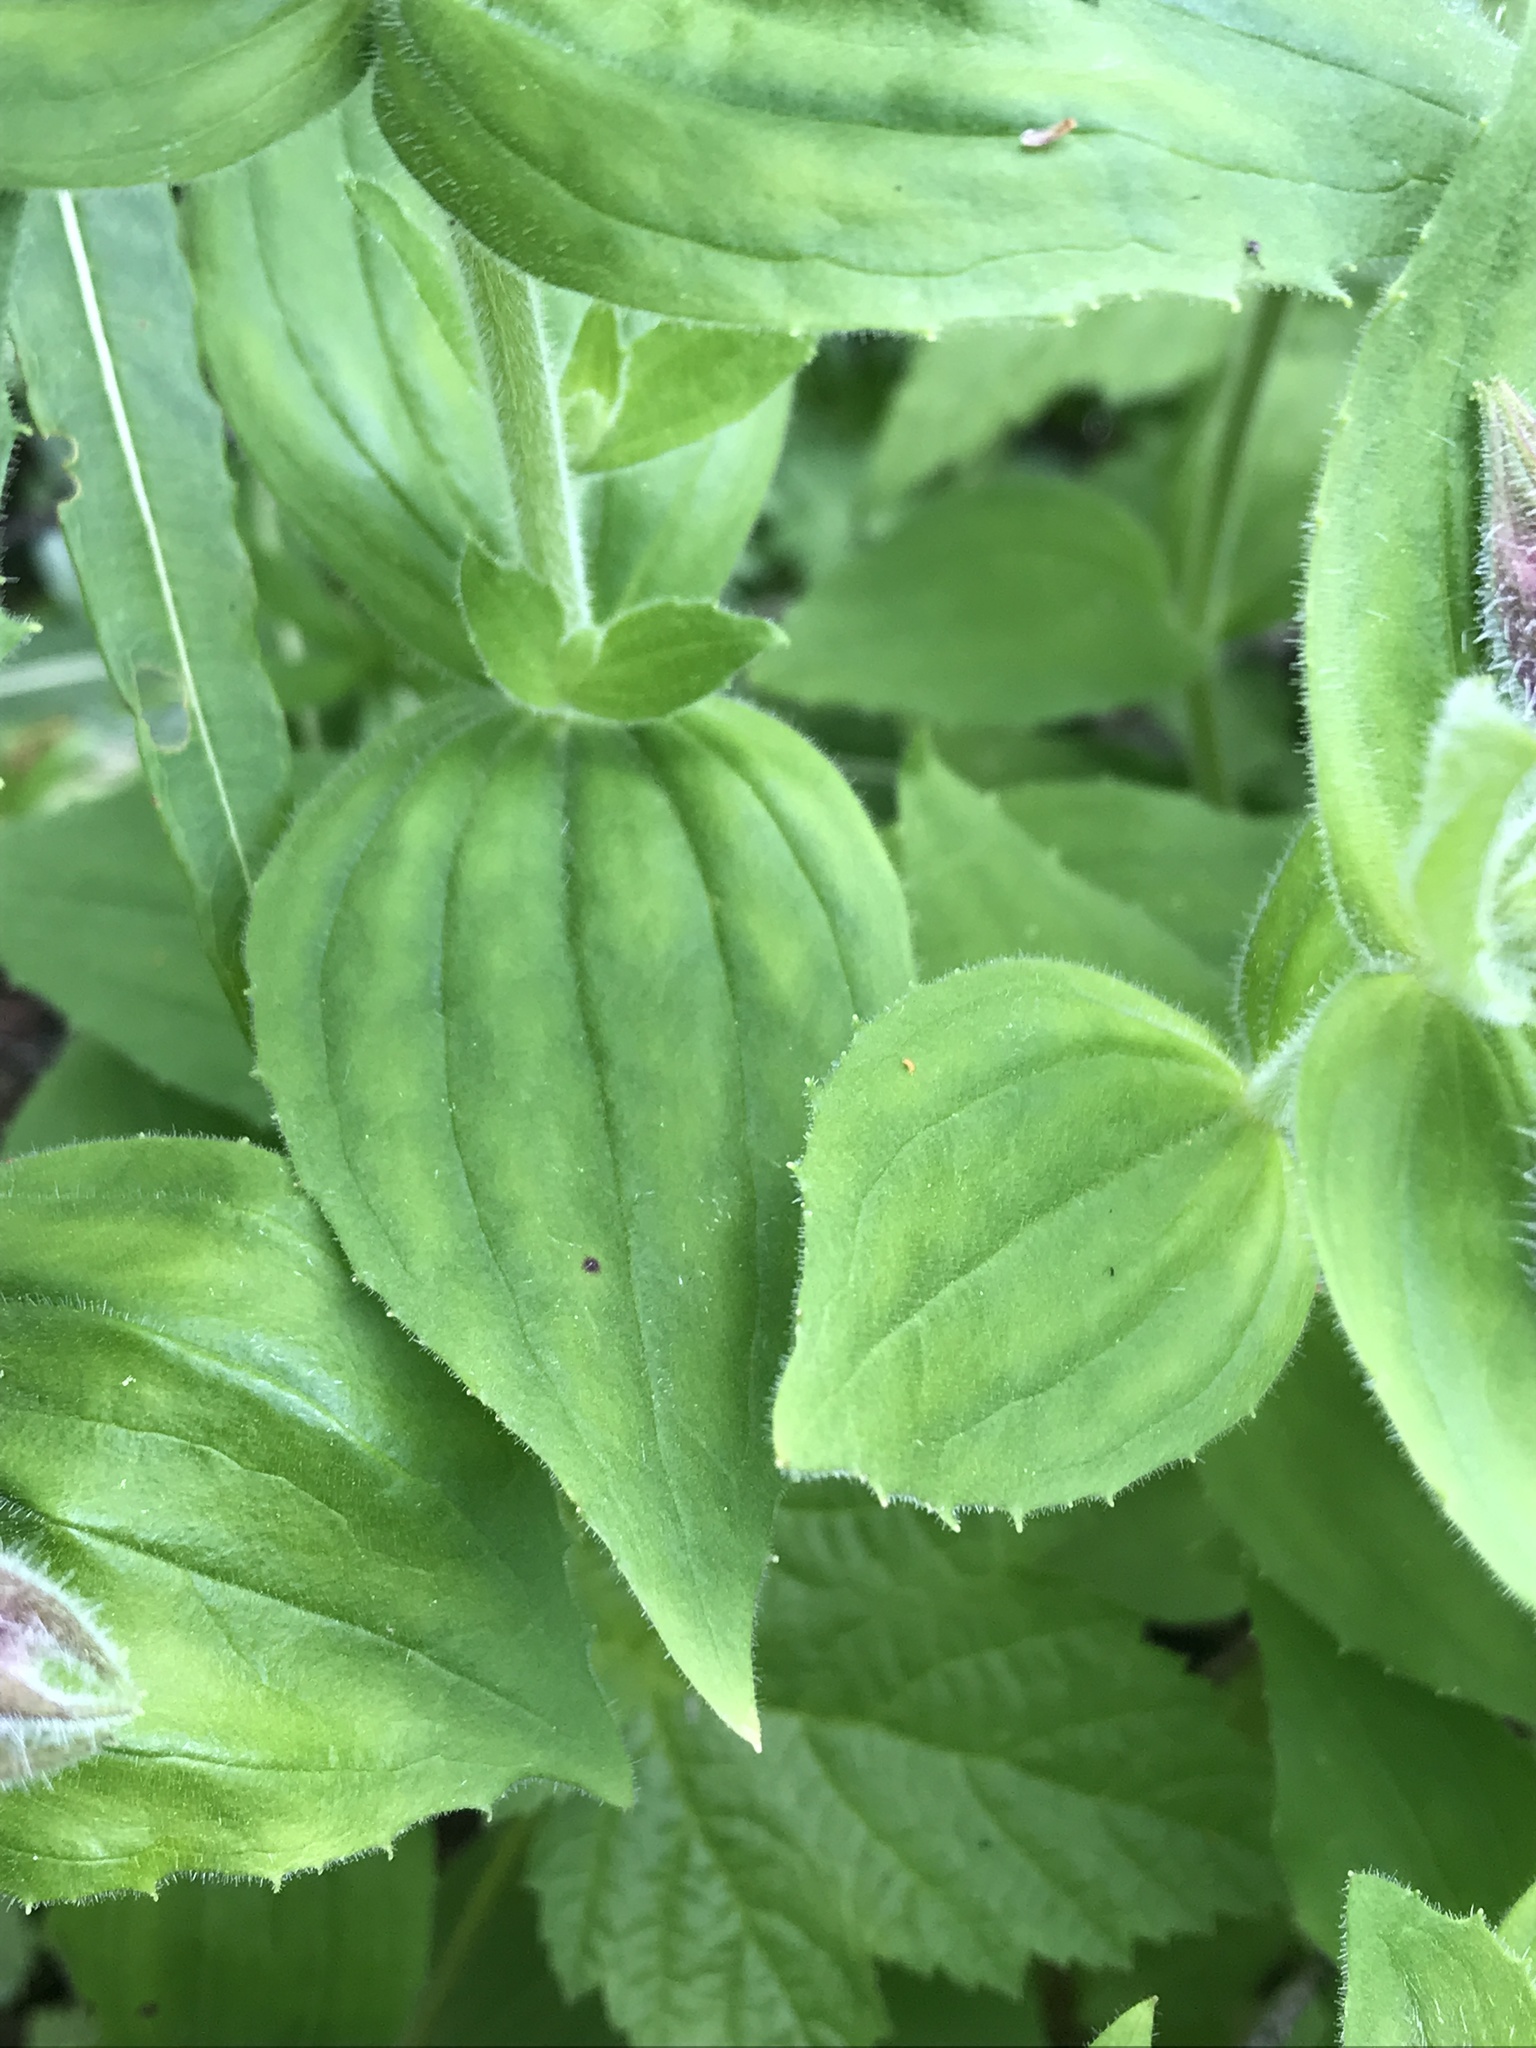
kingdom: Plantae
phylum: Tracheophyta
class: Magnoliopsida
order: Lamiales
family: Phrymaceae
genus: Erythranthe
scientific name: Erythranthe lewisii
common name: Lewis's monkey-flower
